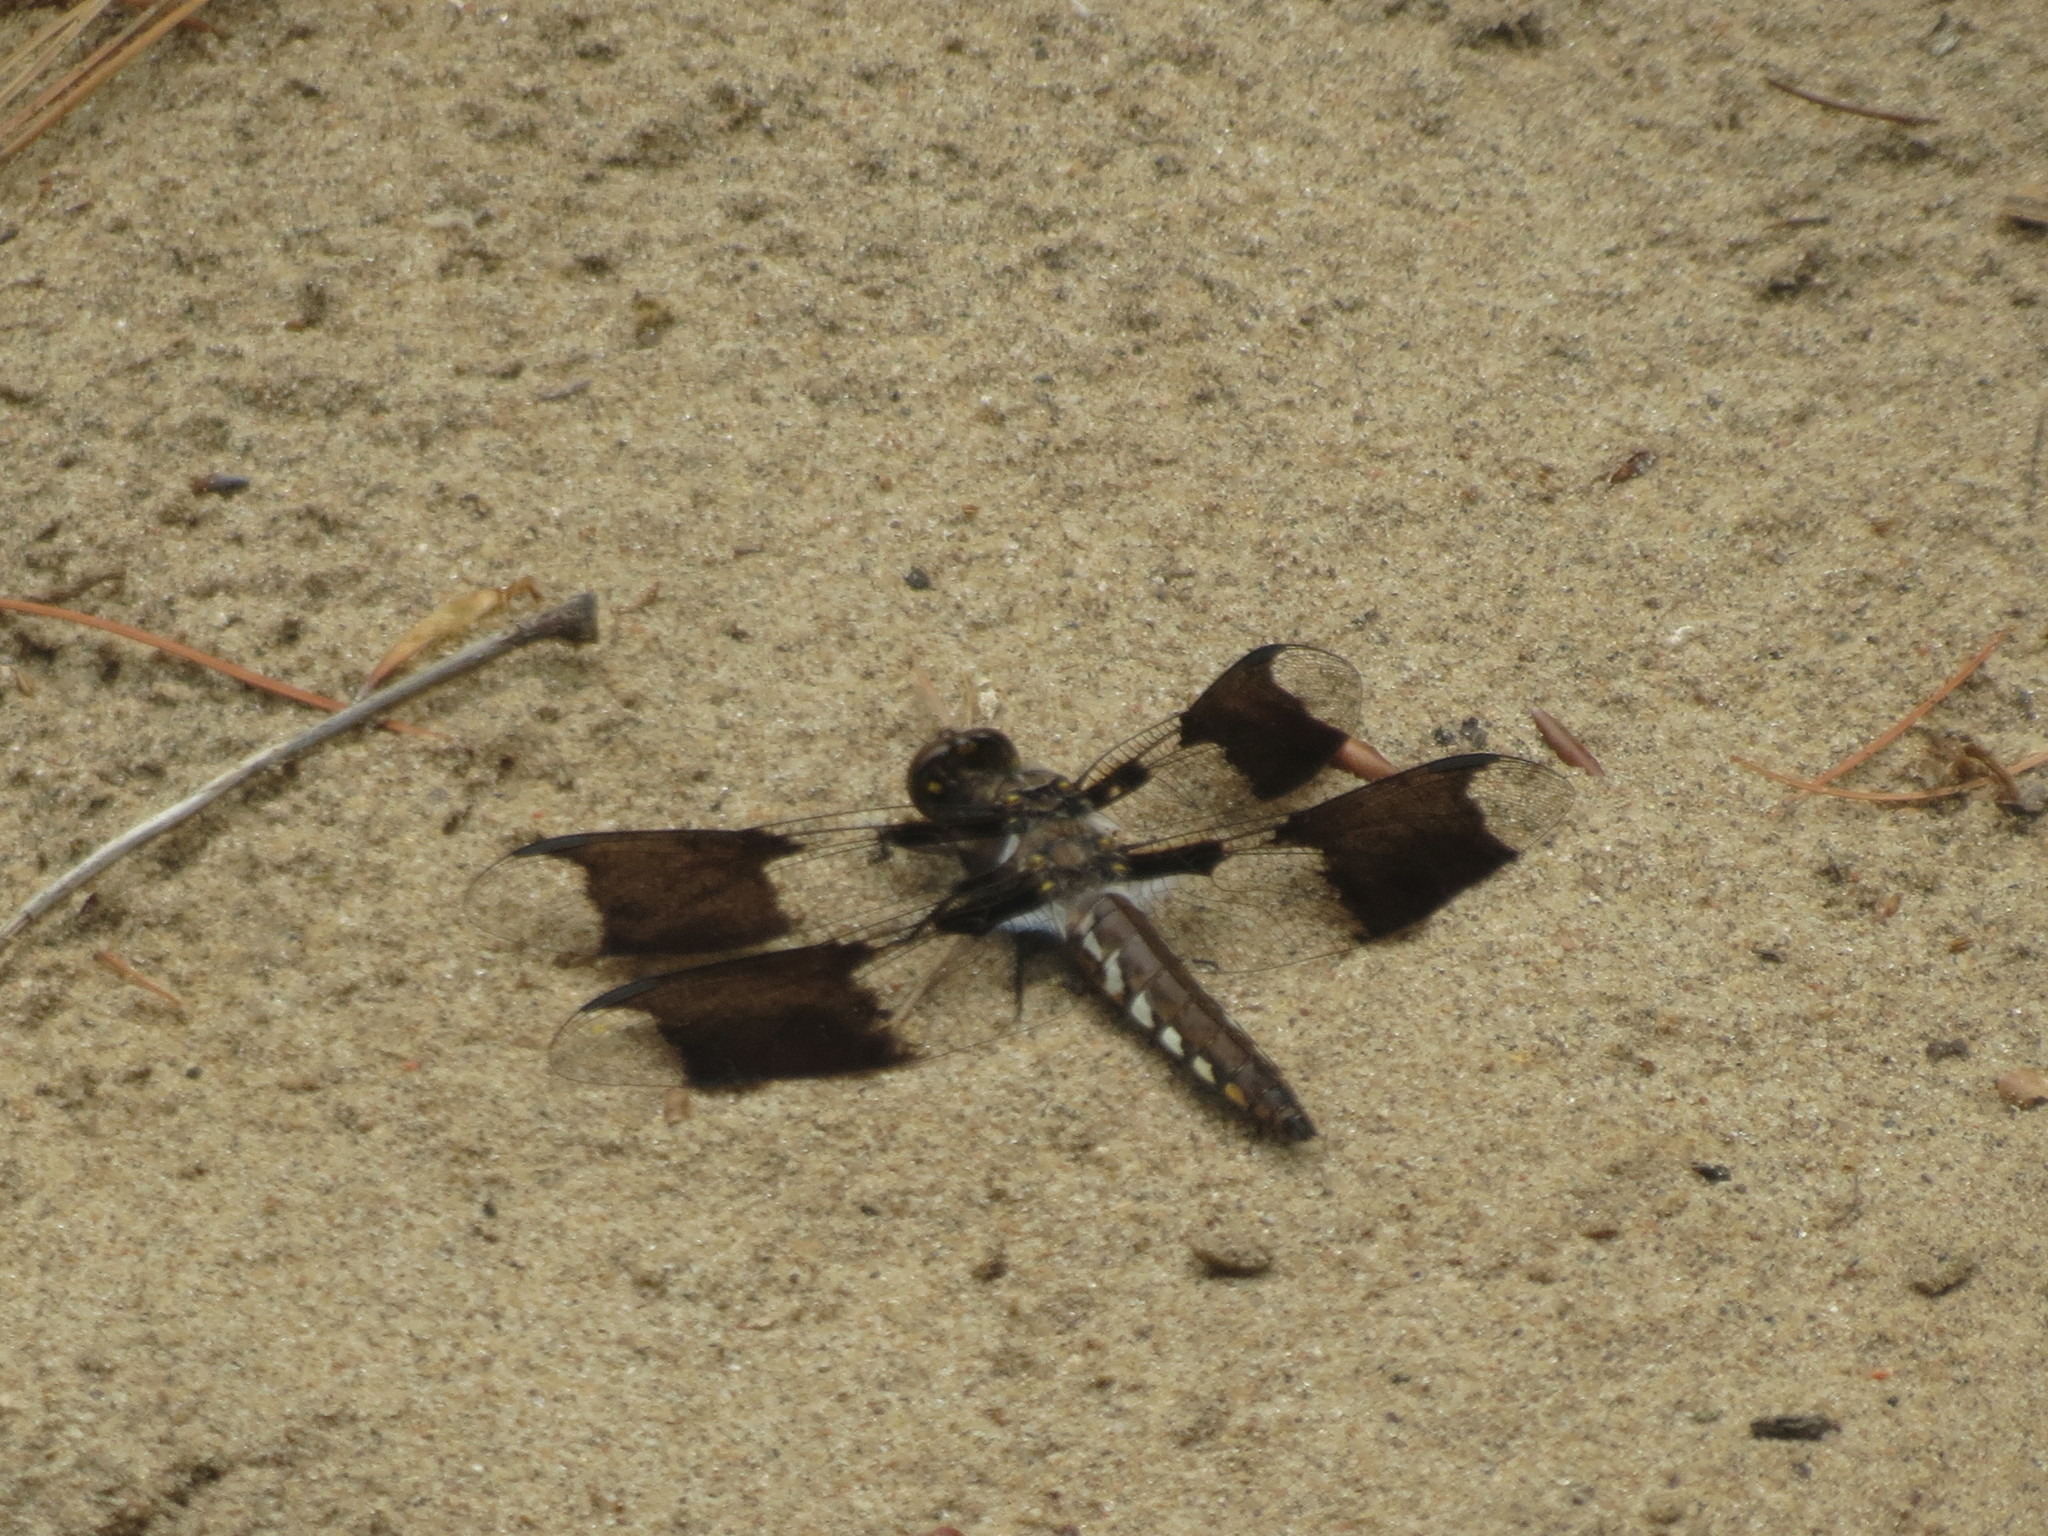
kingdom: Animalia
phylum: Arthropoda
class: Insecta
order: Odonata
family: Libellulidae
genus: Plathemis
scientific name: Plathemis lydia
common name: Common whitetail
